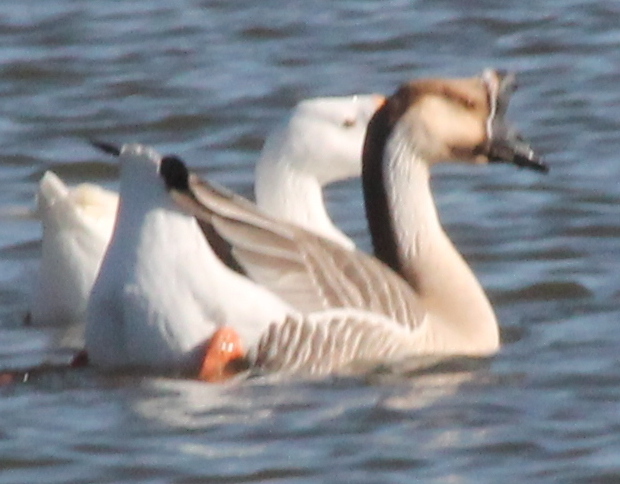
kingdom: Animalia
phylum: Chordata
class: Aves
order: Anseriformes
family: Anatidae
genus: Anser
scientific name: Anser cygnoides
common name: Swan goose
